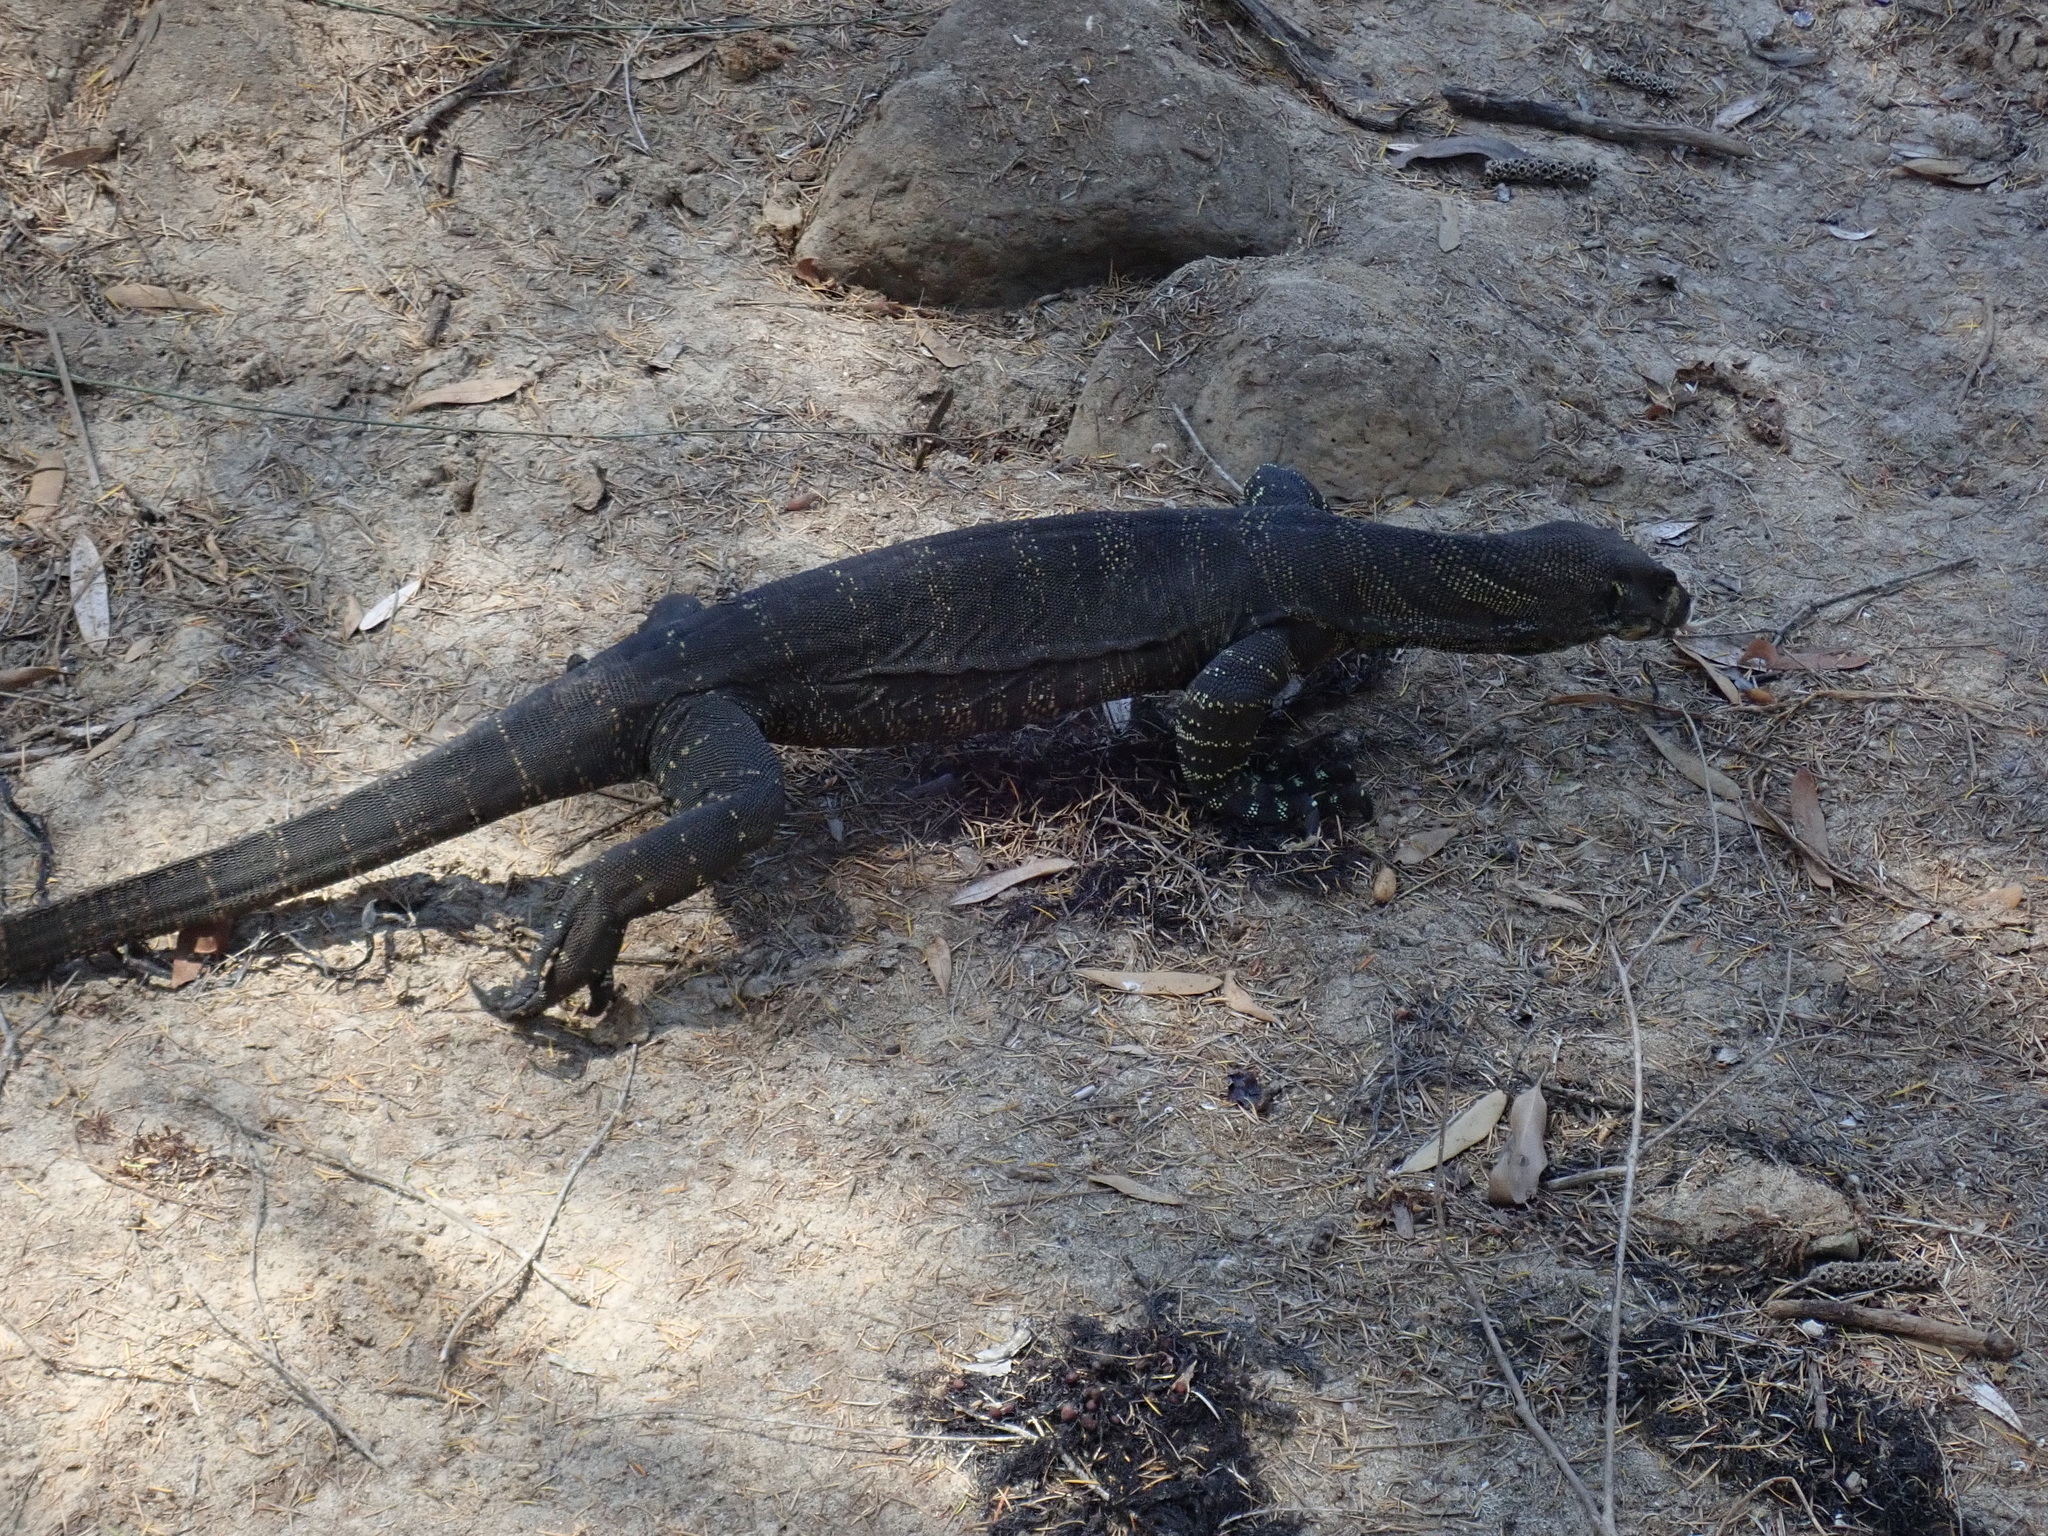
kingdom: Animalia
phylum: Chordata
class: Squamata
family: Varanidae
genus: Varanus
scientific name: Varanus varius
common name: Lace monitor
